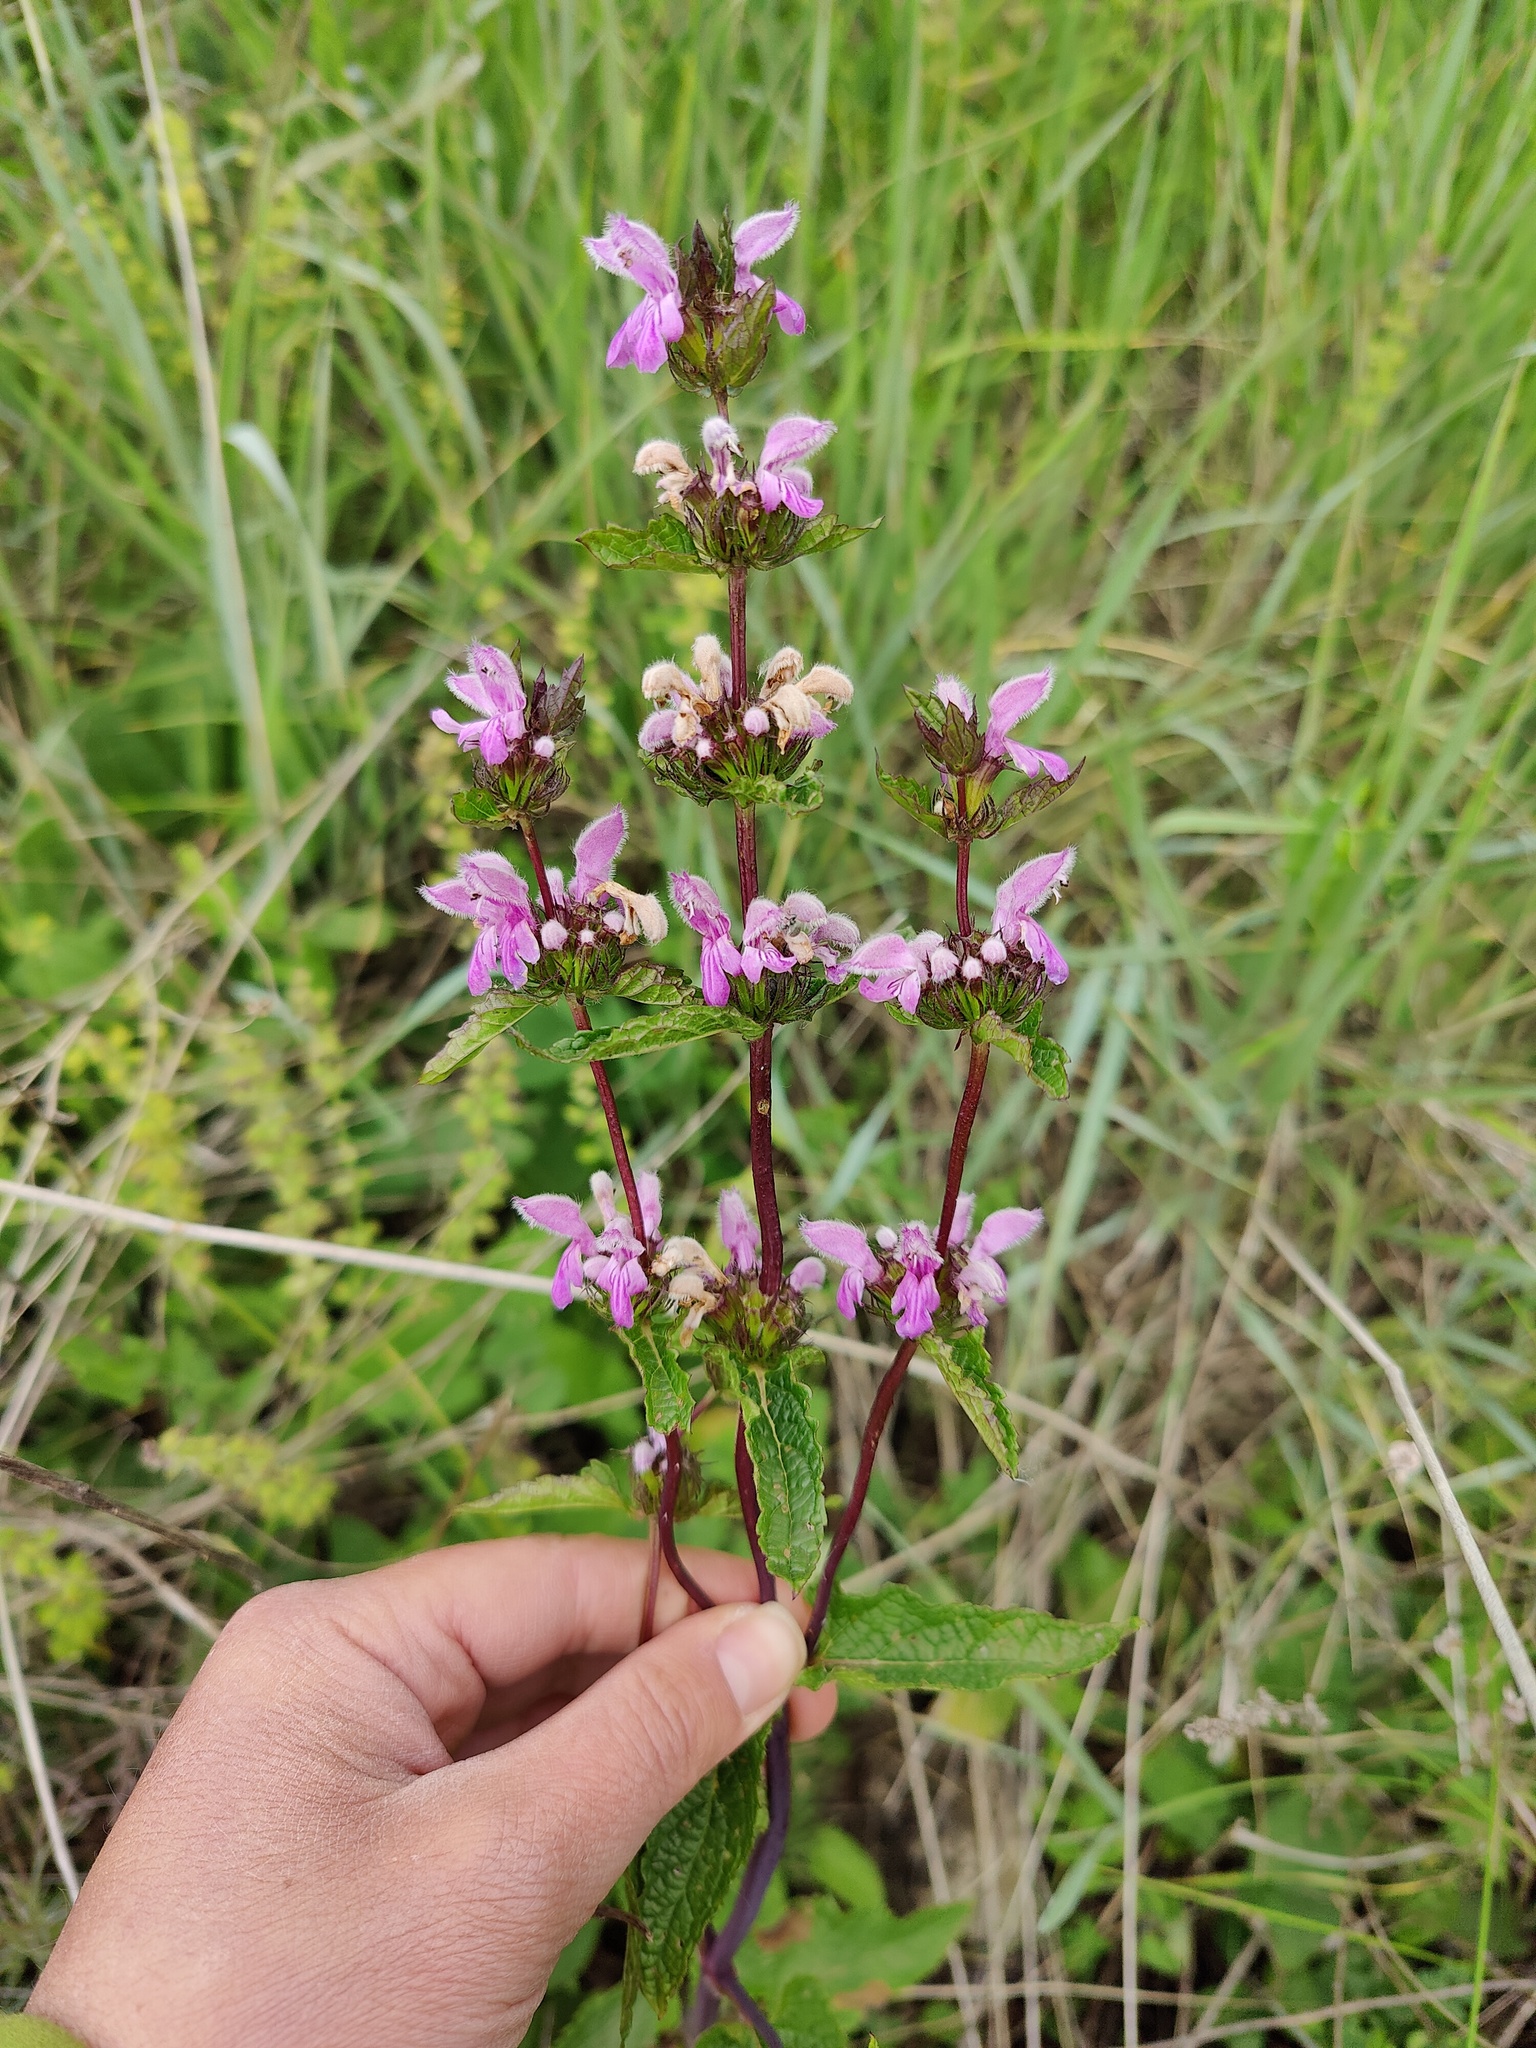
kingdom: Plantae
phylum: Tracheophyta
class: Magnoliopsida
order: Lamiales
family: Lamiaceae
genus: Phlomoides
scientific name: Phlomoides tuberosa
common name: Tuberous jerusalem sage
